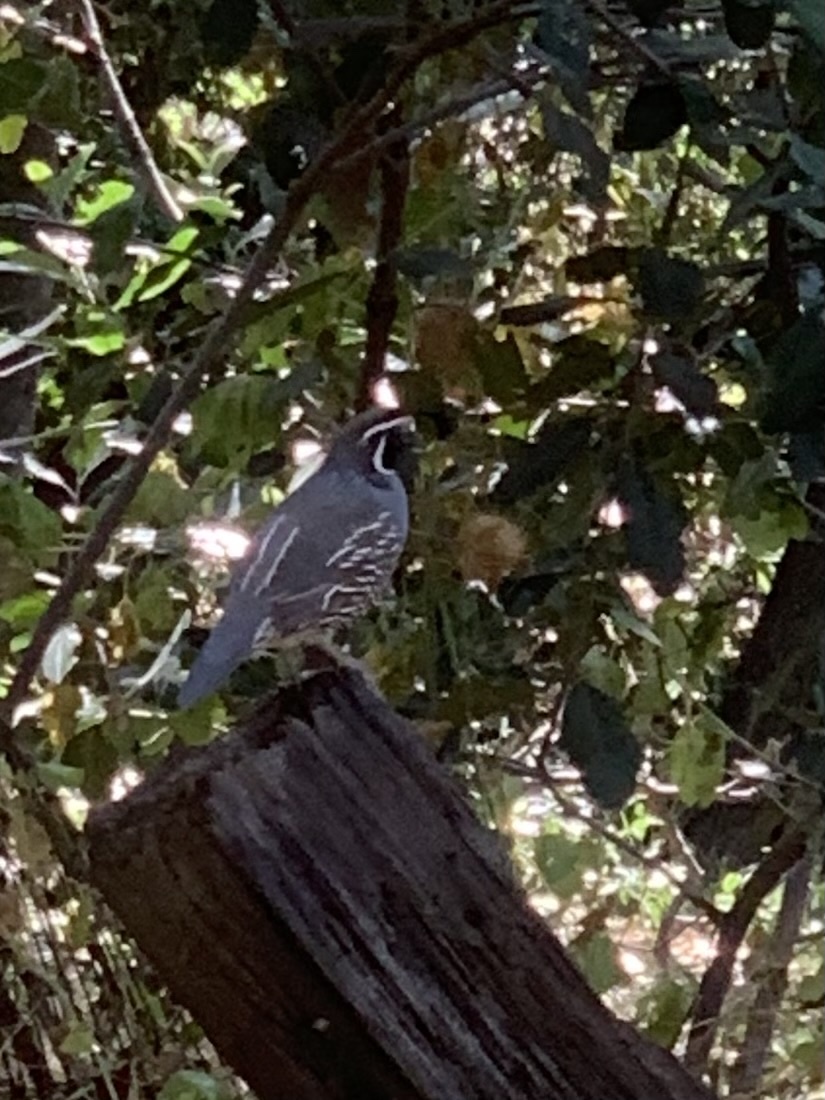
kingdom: Animalia
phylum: Chordata
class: Aves
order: Galliformes
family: Odontophoridae
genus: Callipepla
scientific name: Callipepla californica
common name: California quail
